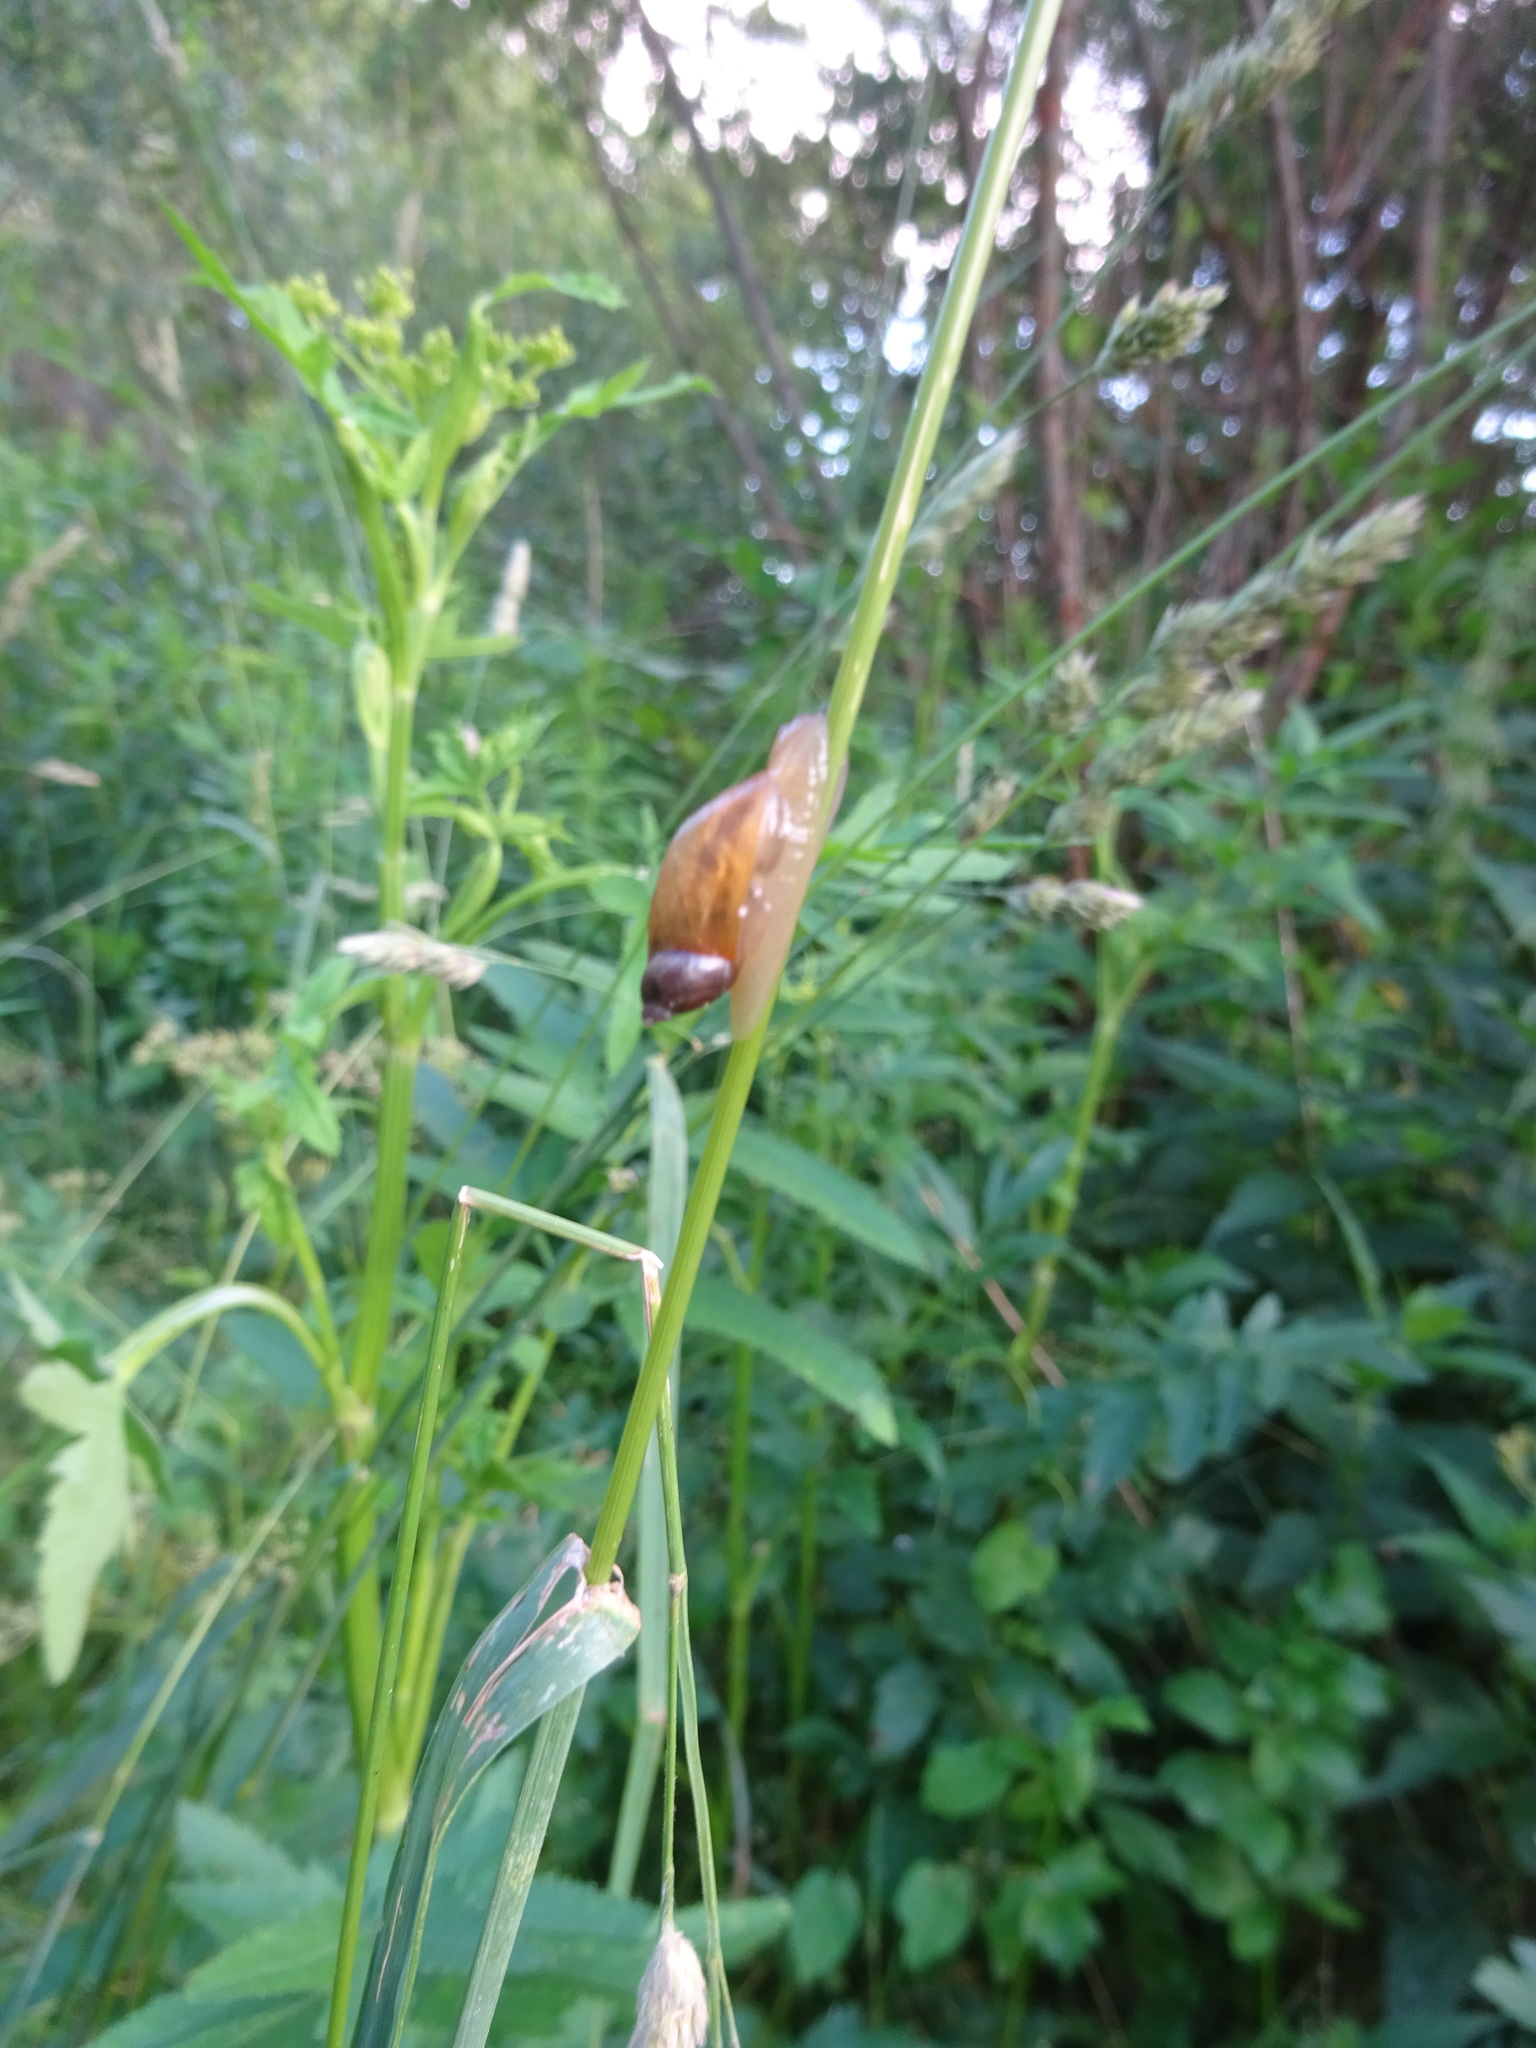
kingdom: Animalia
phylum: Mollusca
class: Gastropoda
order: Stylommatophora
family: Succineidae
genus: Oxyloma
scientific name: Oxyloma elegans
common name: Pfeiffer's amber snail
